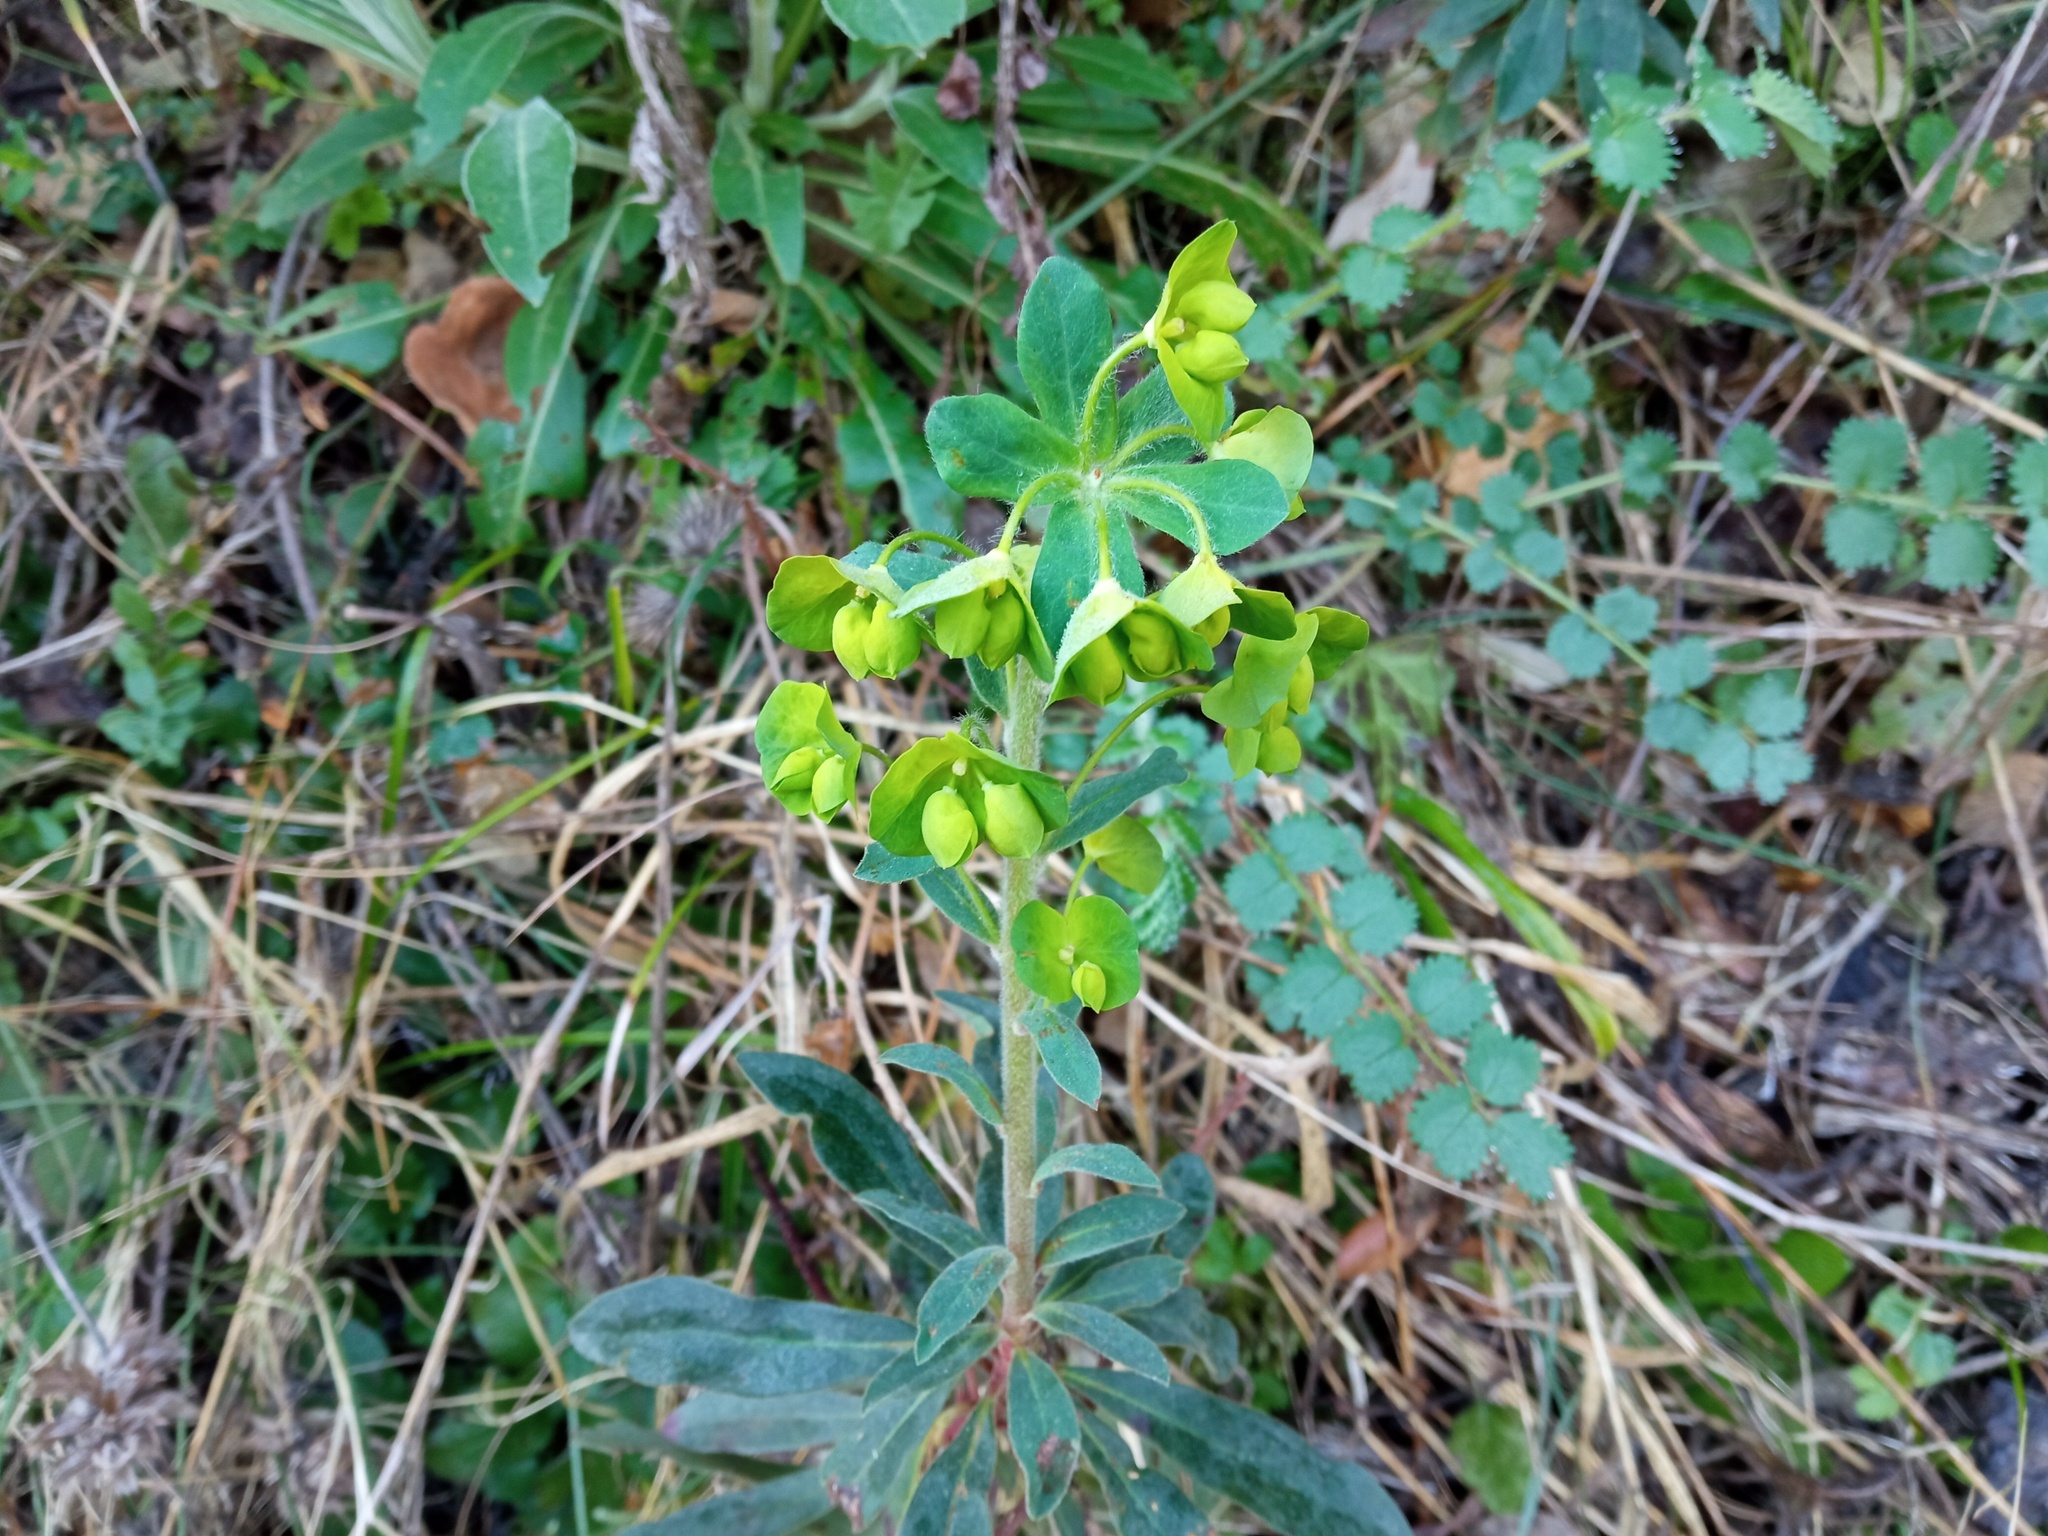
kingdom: Plantae
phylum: Tracheophyta
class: Magnoliopsida
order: Malpighiales
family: Euphorbiaceae
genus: Euphorbia
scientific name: Euphorbia amygdaloides
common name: Wood spurge
